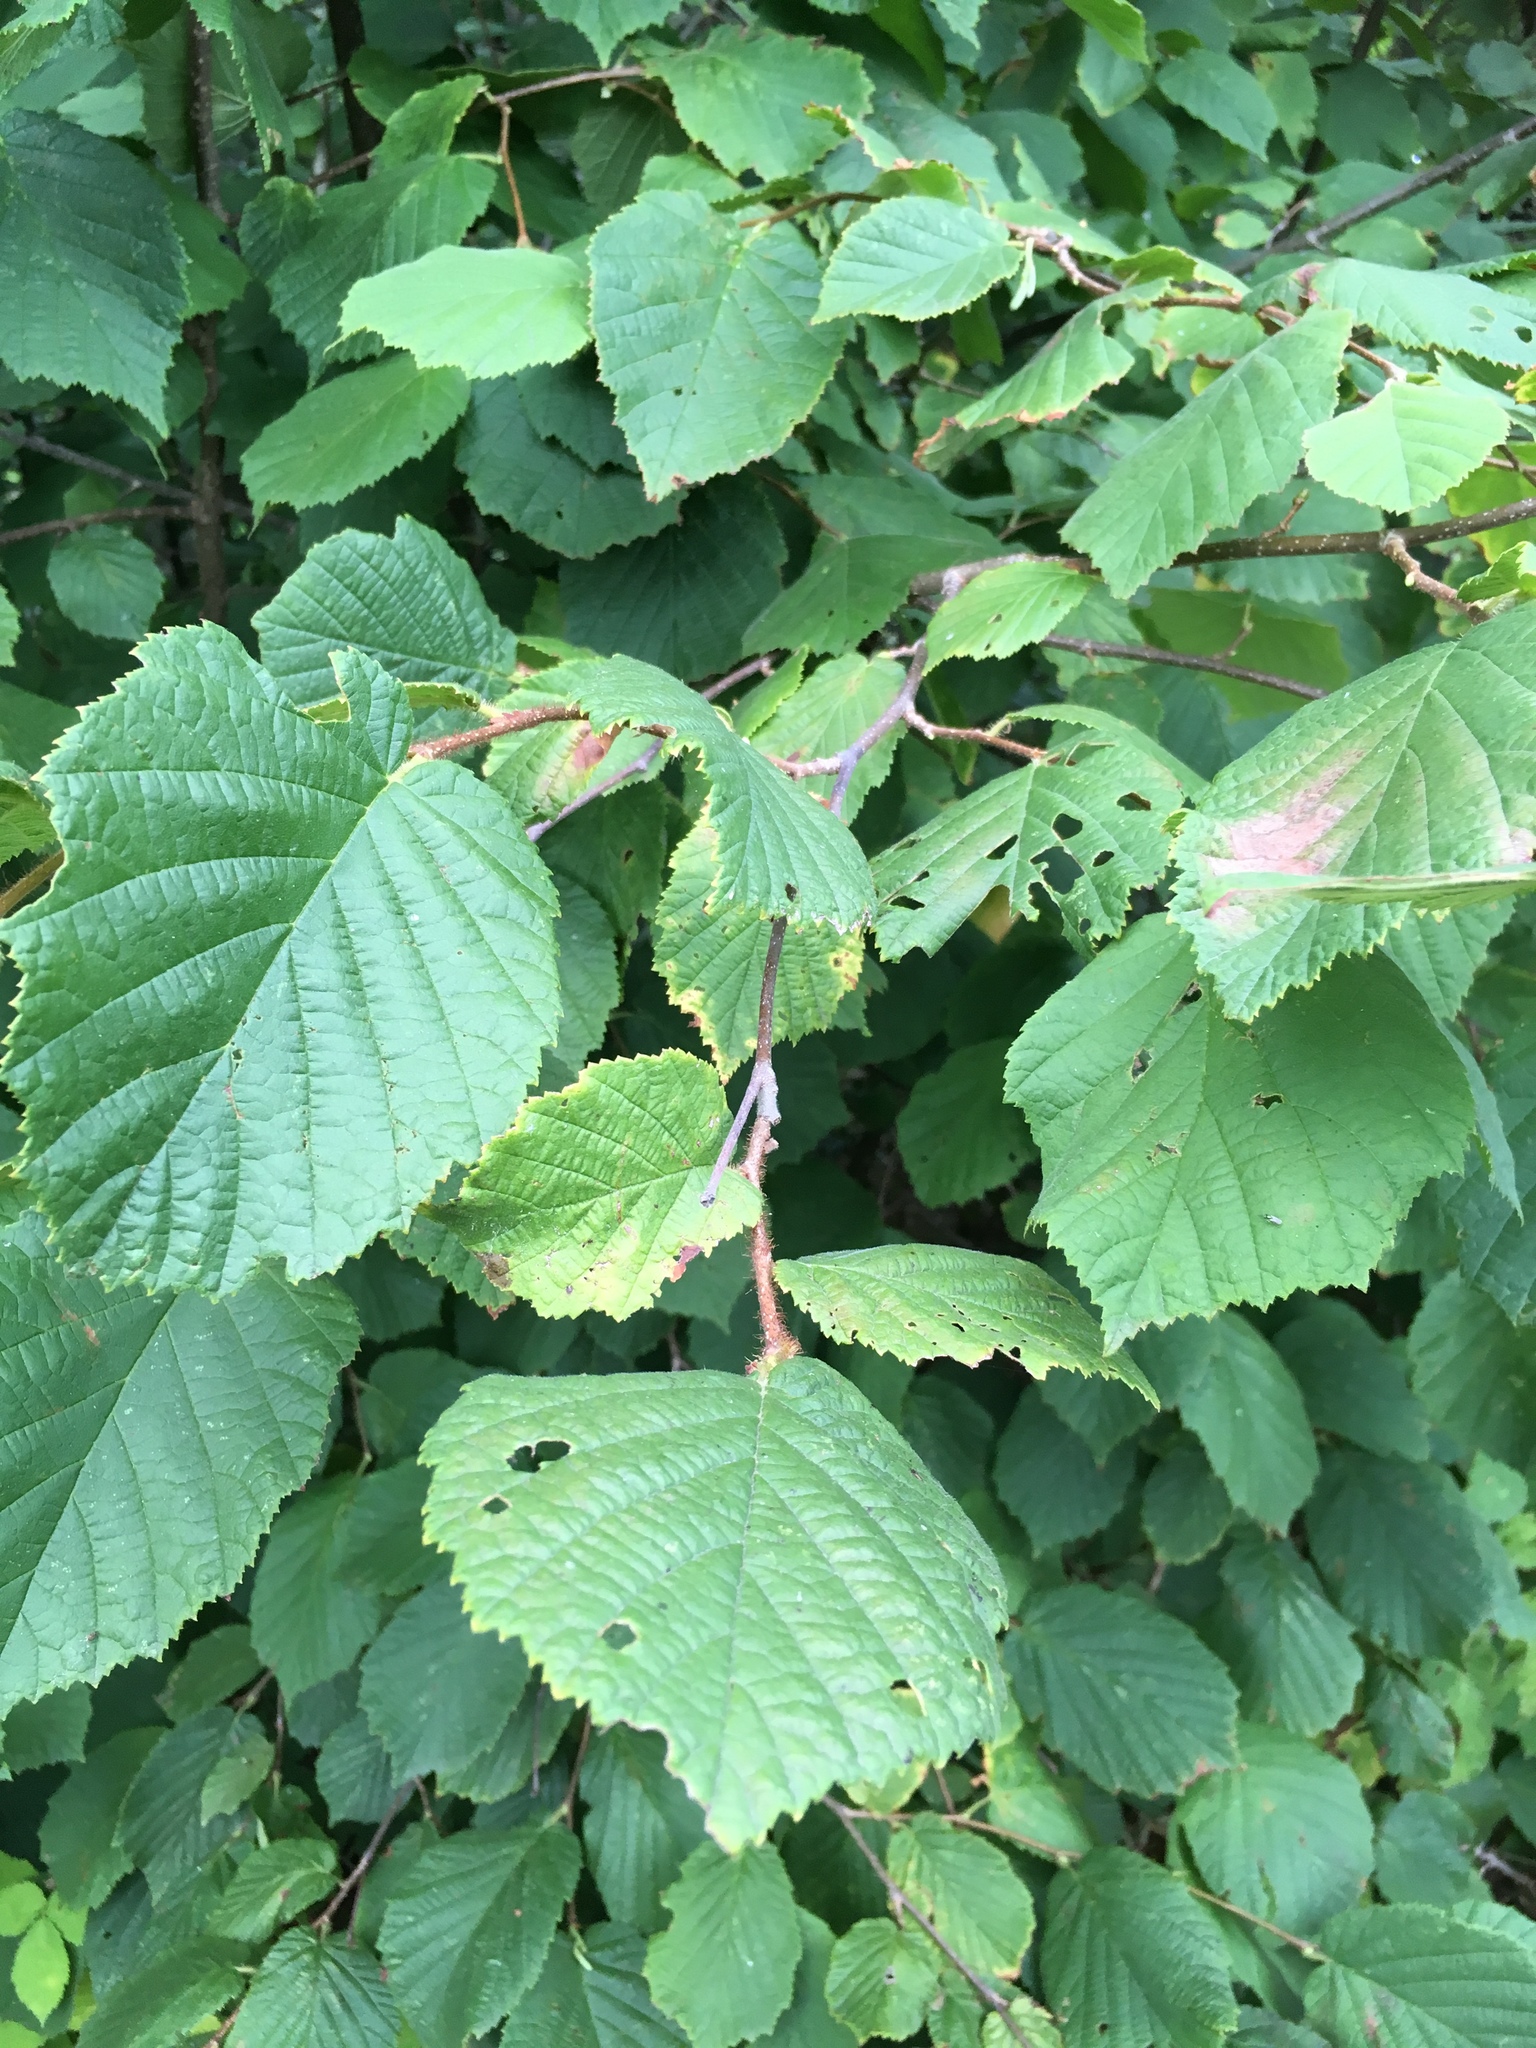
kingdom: Plantae
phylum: Tracheophyta
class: Magnoliopsida
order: Fagales
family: Betulaceae
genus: Corylus
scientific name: Corylus avellana
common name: European hazel
